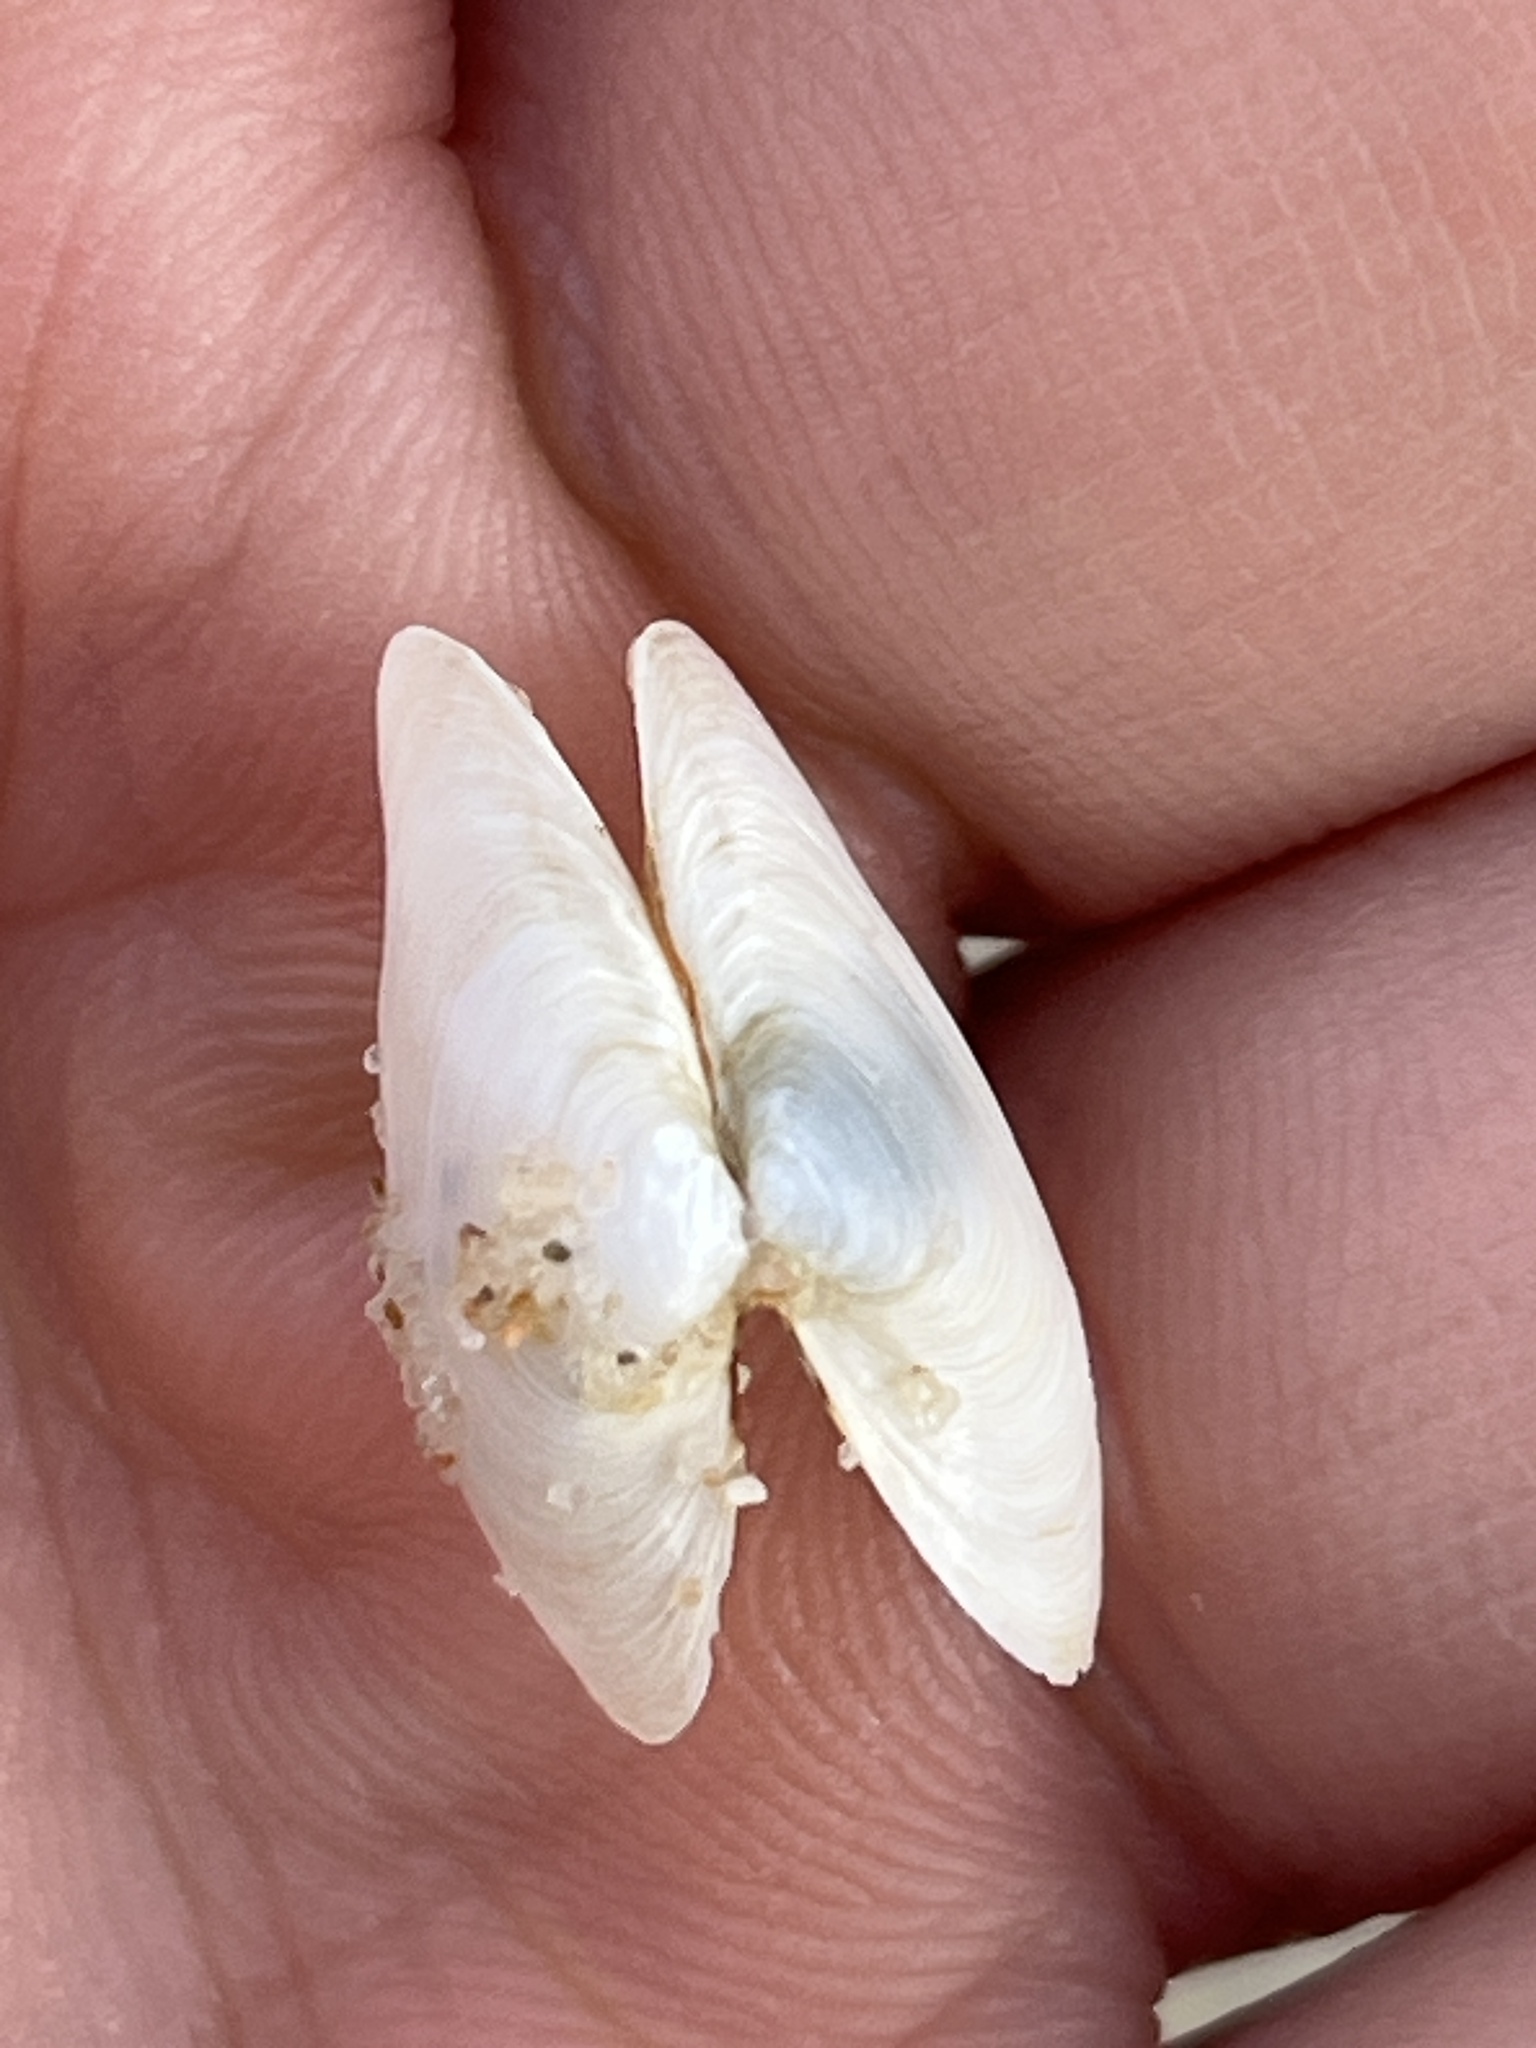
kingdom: Animalia
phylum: Mollusca
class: Bivalvia
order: Myida
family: Myidae
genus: Mya
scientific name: Mya arenaria
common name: Soft-shelled clam
